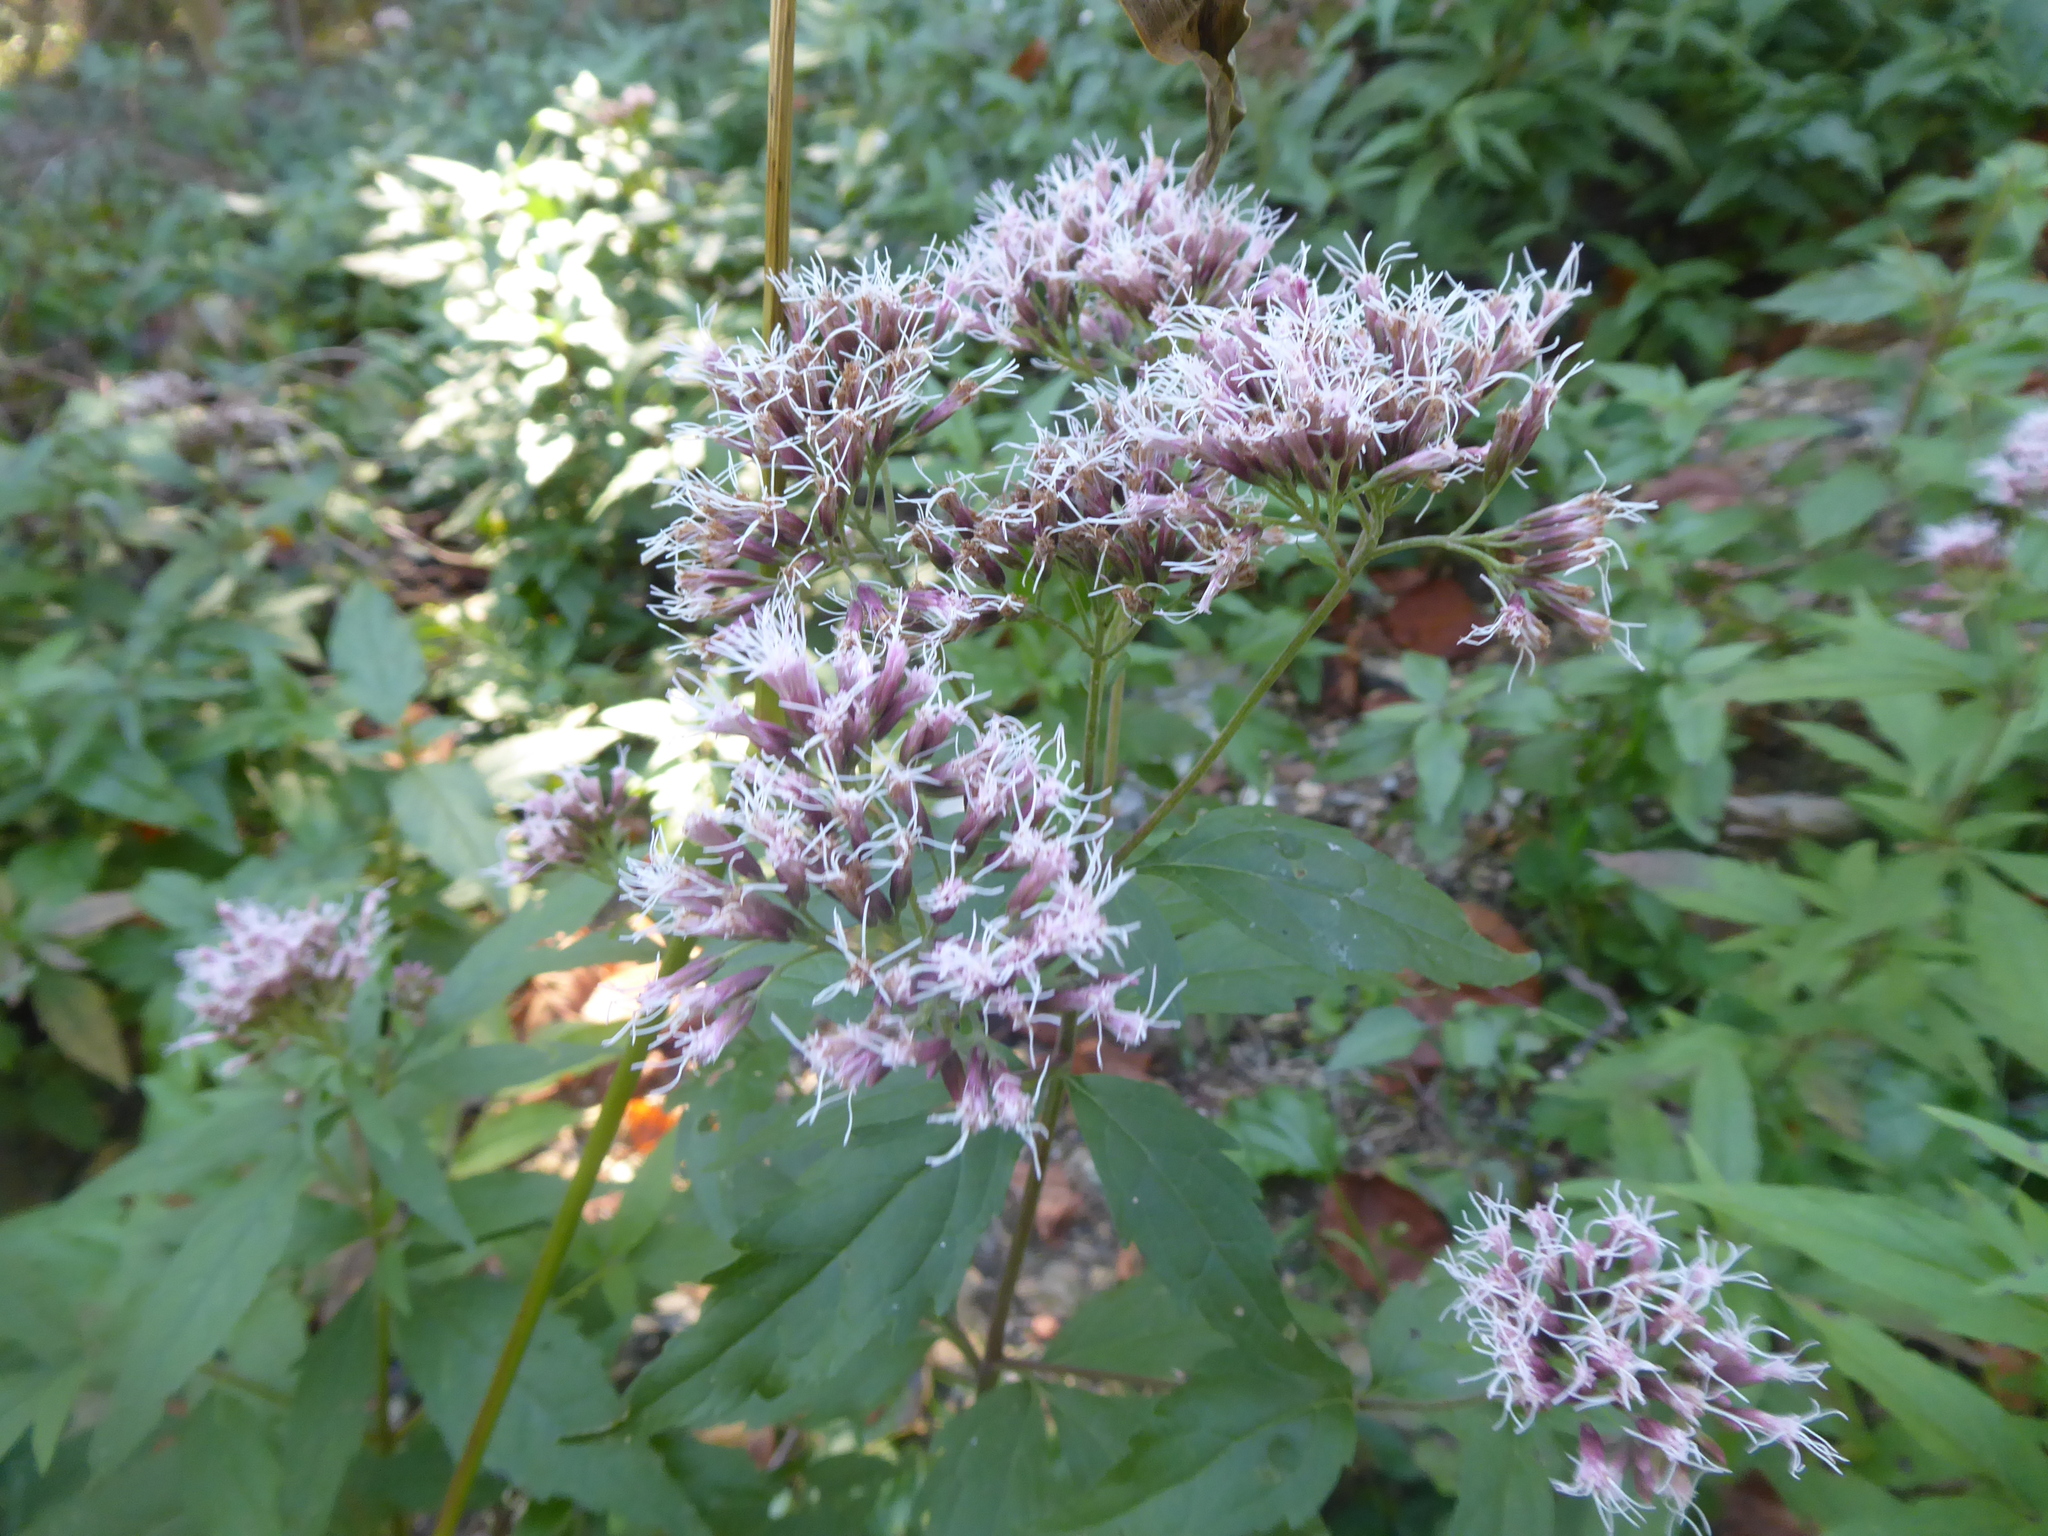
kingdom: Plantae
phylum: Tracheophyta
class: Magnoliopsida
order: Asterales
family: Asteraceae
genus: Eupatorium
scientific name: Eupatorium cannabinum
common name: Hemp-agrimony
